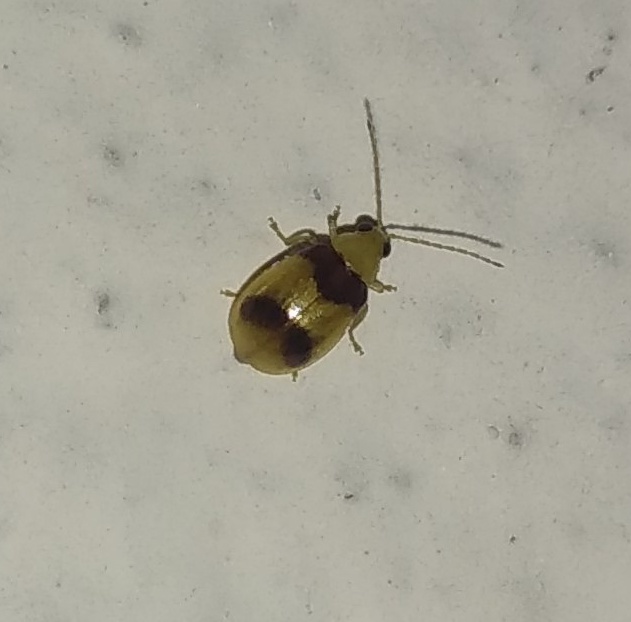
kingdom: Animalia
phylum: Arthropoda
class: Insecta
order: Coleoptera
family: Chrysomelidae
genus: Monolepta
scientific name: Monolepta
